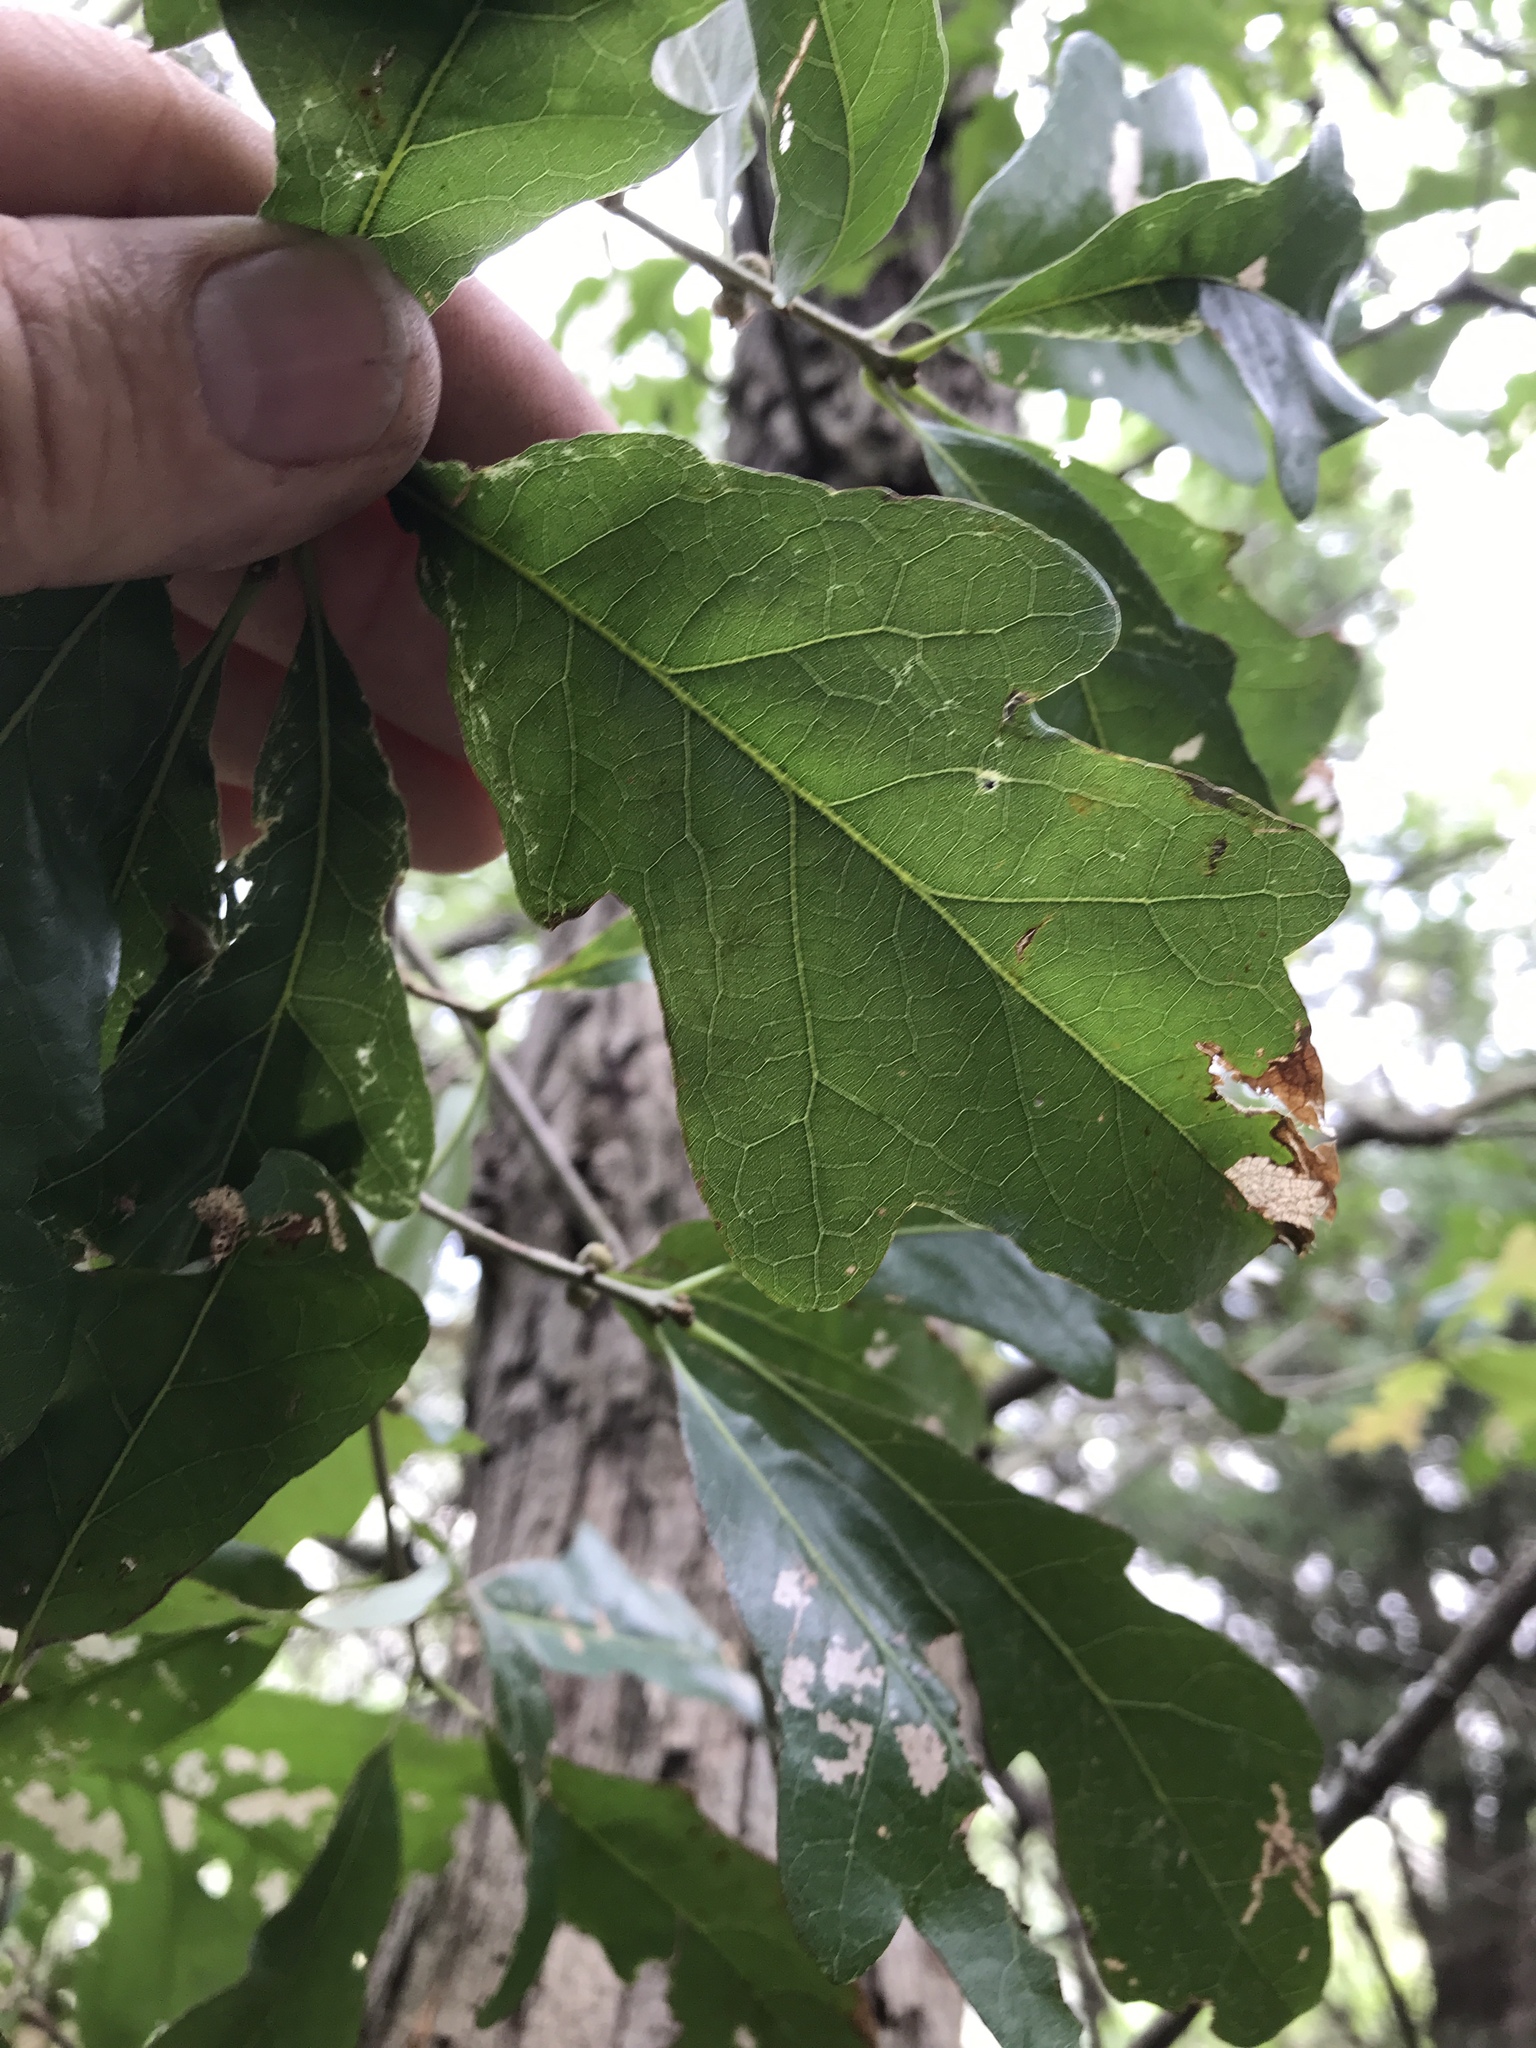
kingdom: Plantae
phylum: Tracheophyta
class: Magnoliopsida
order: Fagales
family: Fagaceae
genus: Quercus
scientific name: Quercus sinuata
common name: Durand oak
